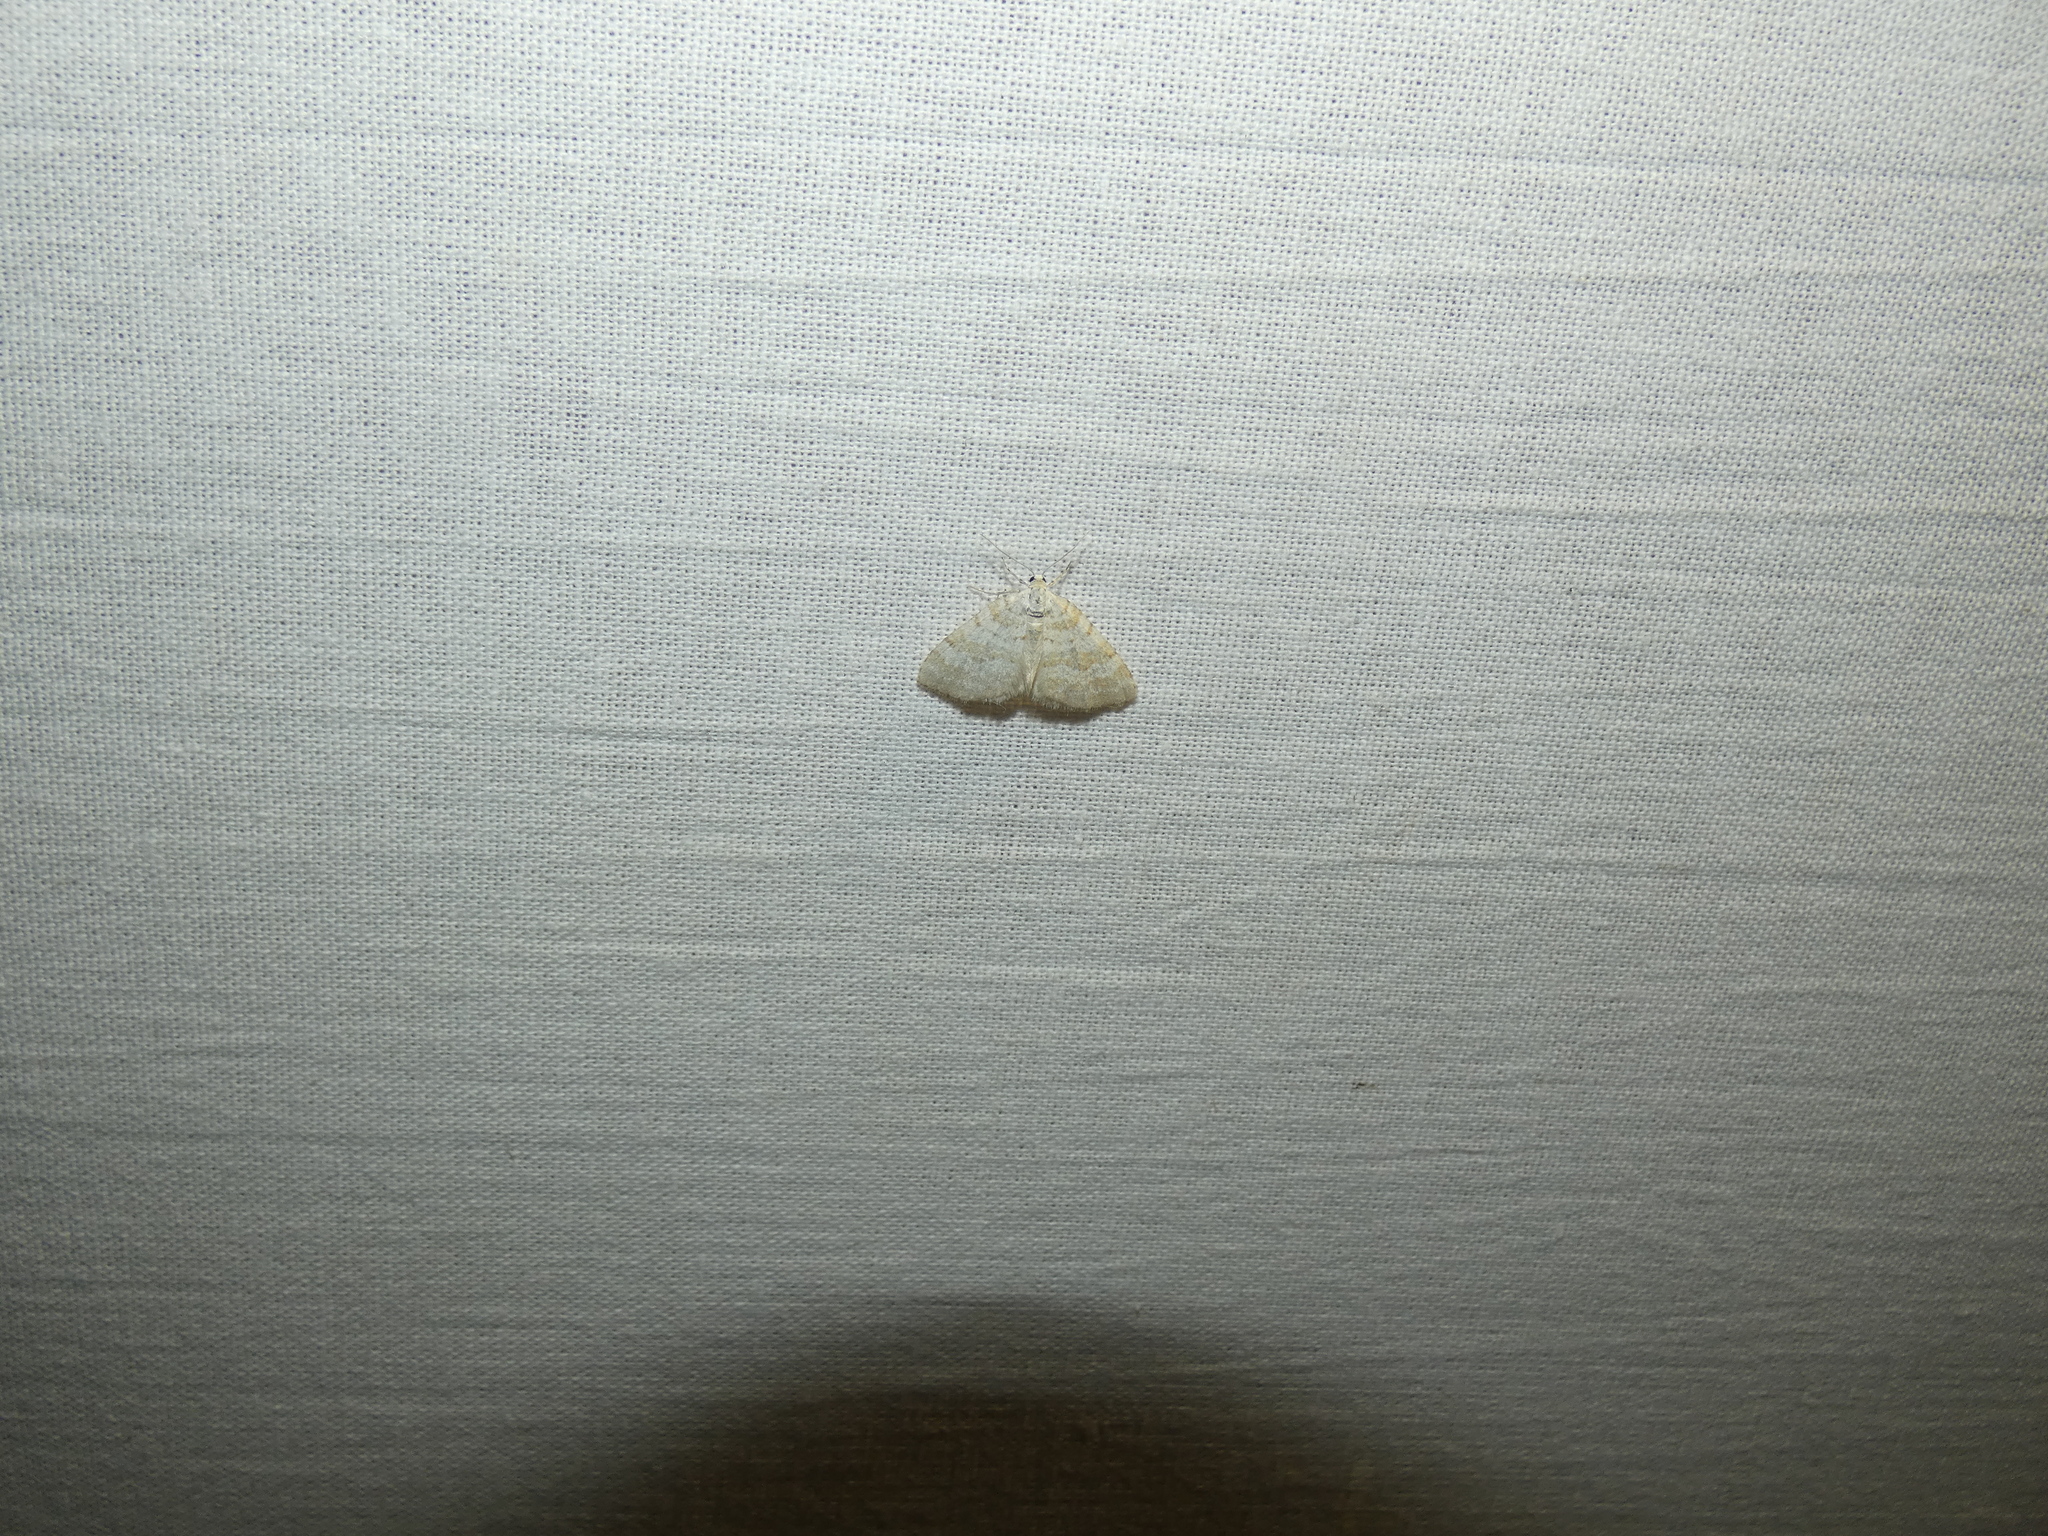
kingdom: Animalia
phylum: Arthropoda
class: Insecta
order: Lepidoptera
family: Geometridae
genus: Perizoma
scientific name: Perizoma albulata
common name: Grass rivulet
